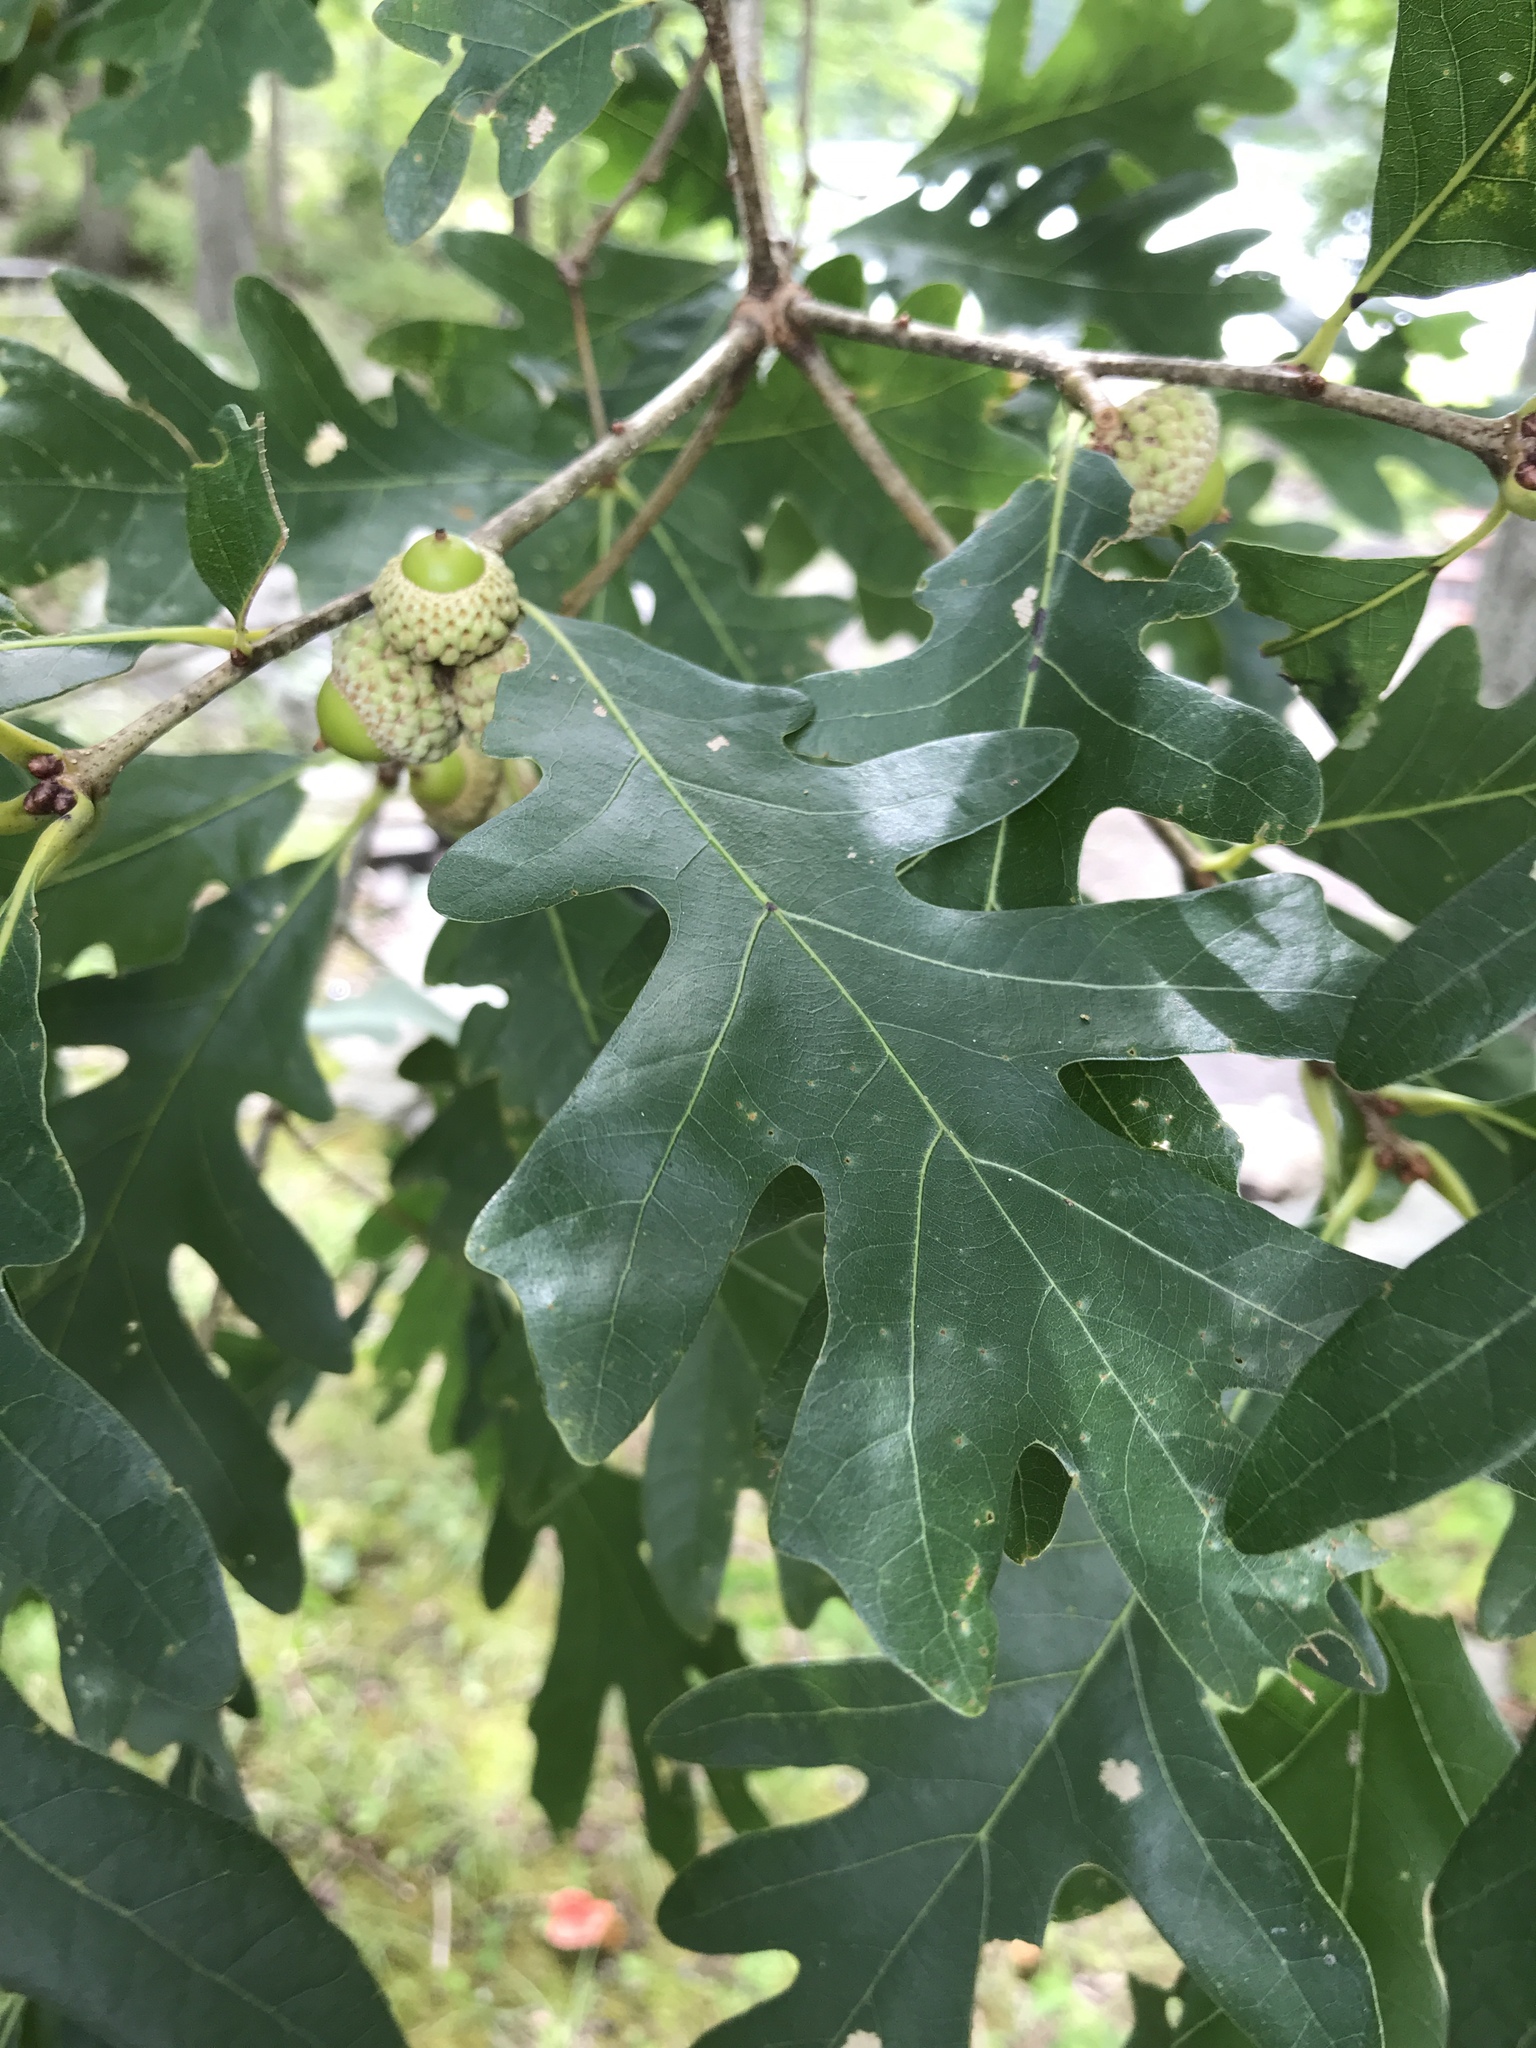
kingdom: Plantae
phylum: Tracheophyta
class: Magnoliopsida
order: Fagales
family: Fagaceae
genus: Quercus
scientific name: Quercus alba
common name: White oak
